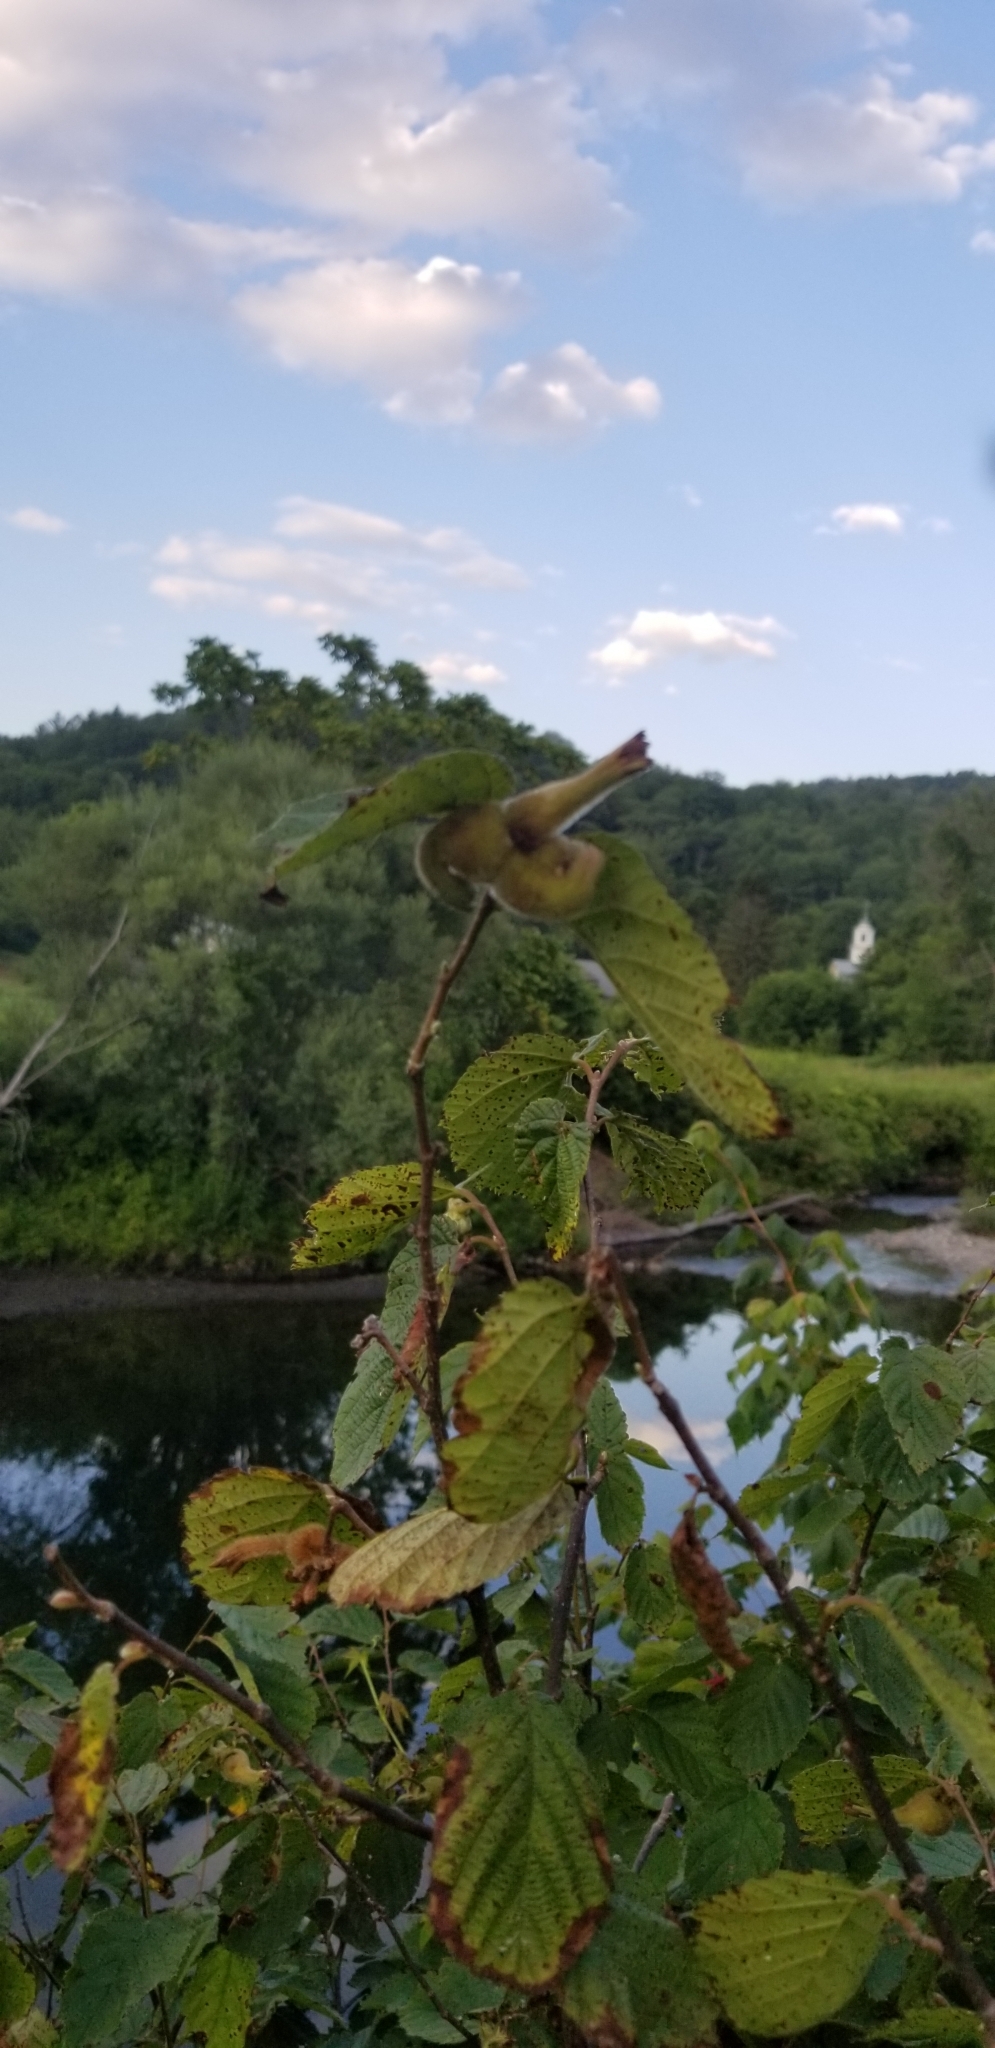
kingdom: Plantae
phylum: Tracheophyta
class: Magnoliopsida
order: Fagales
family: Betulaceae
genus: Corylus
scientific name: Corylus cornuta
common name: Beaked hazel
